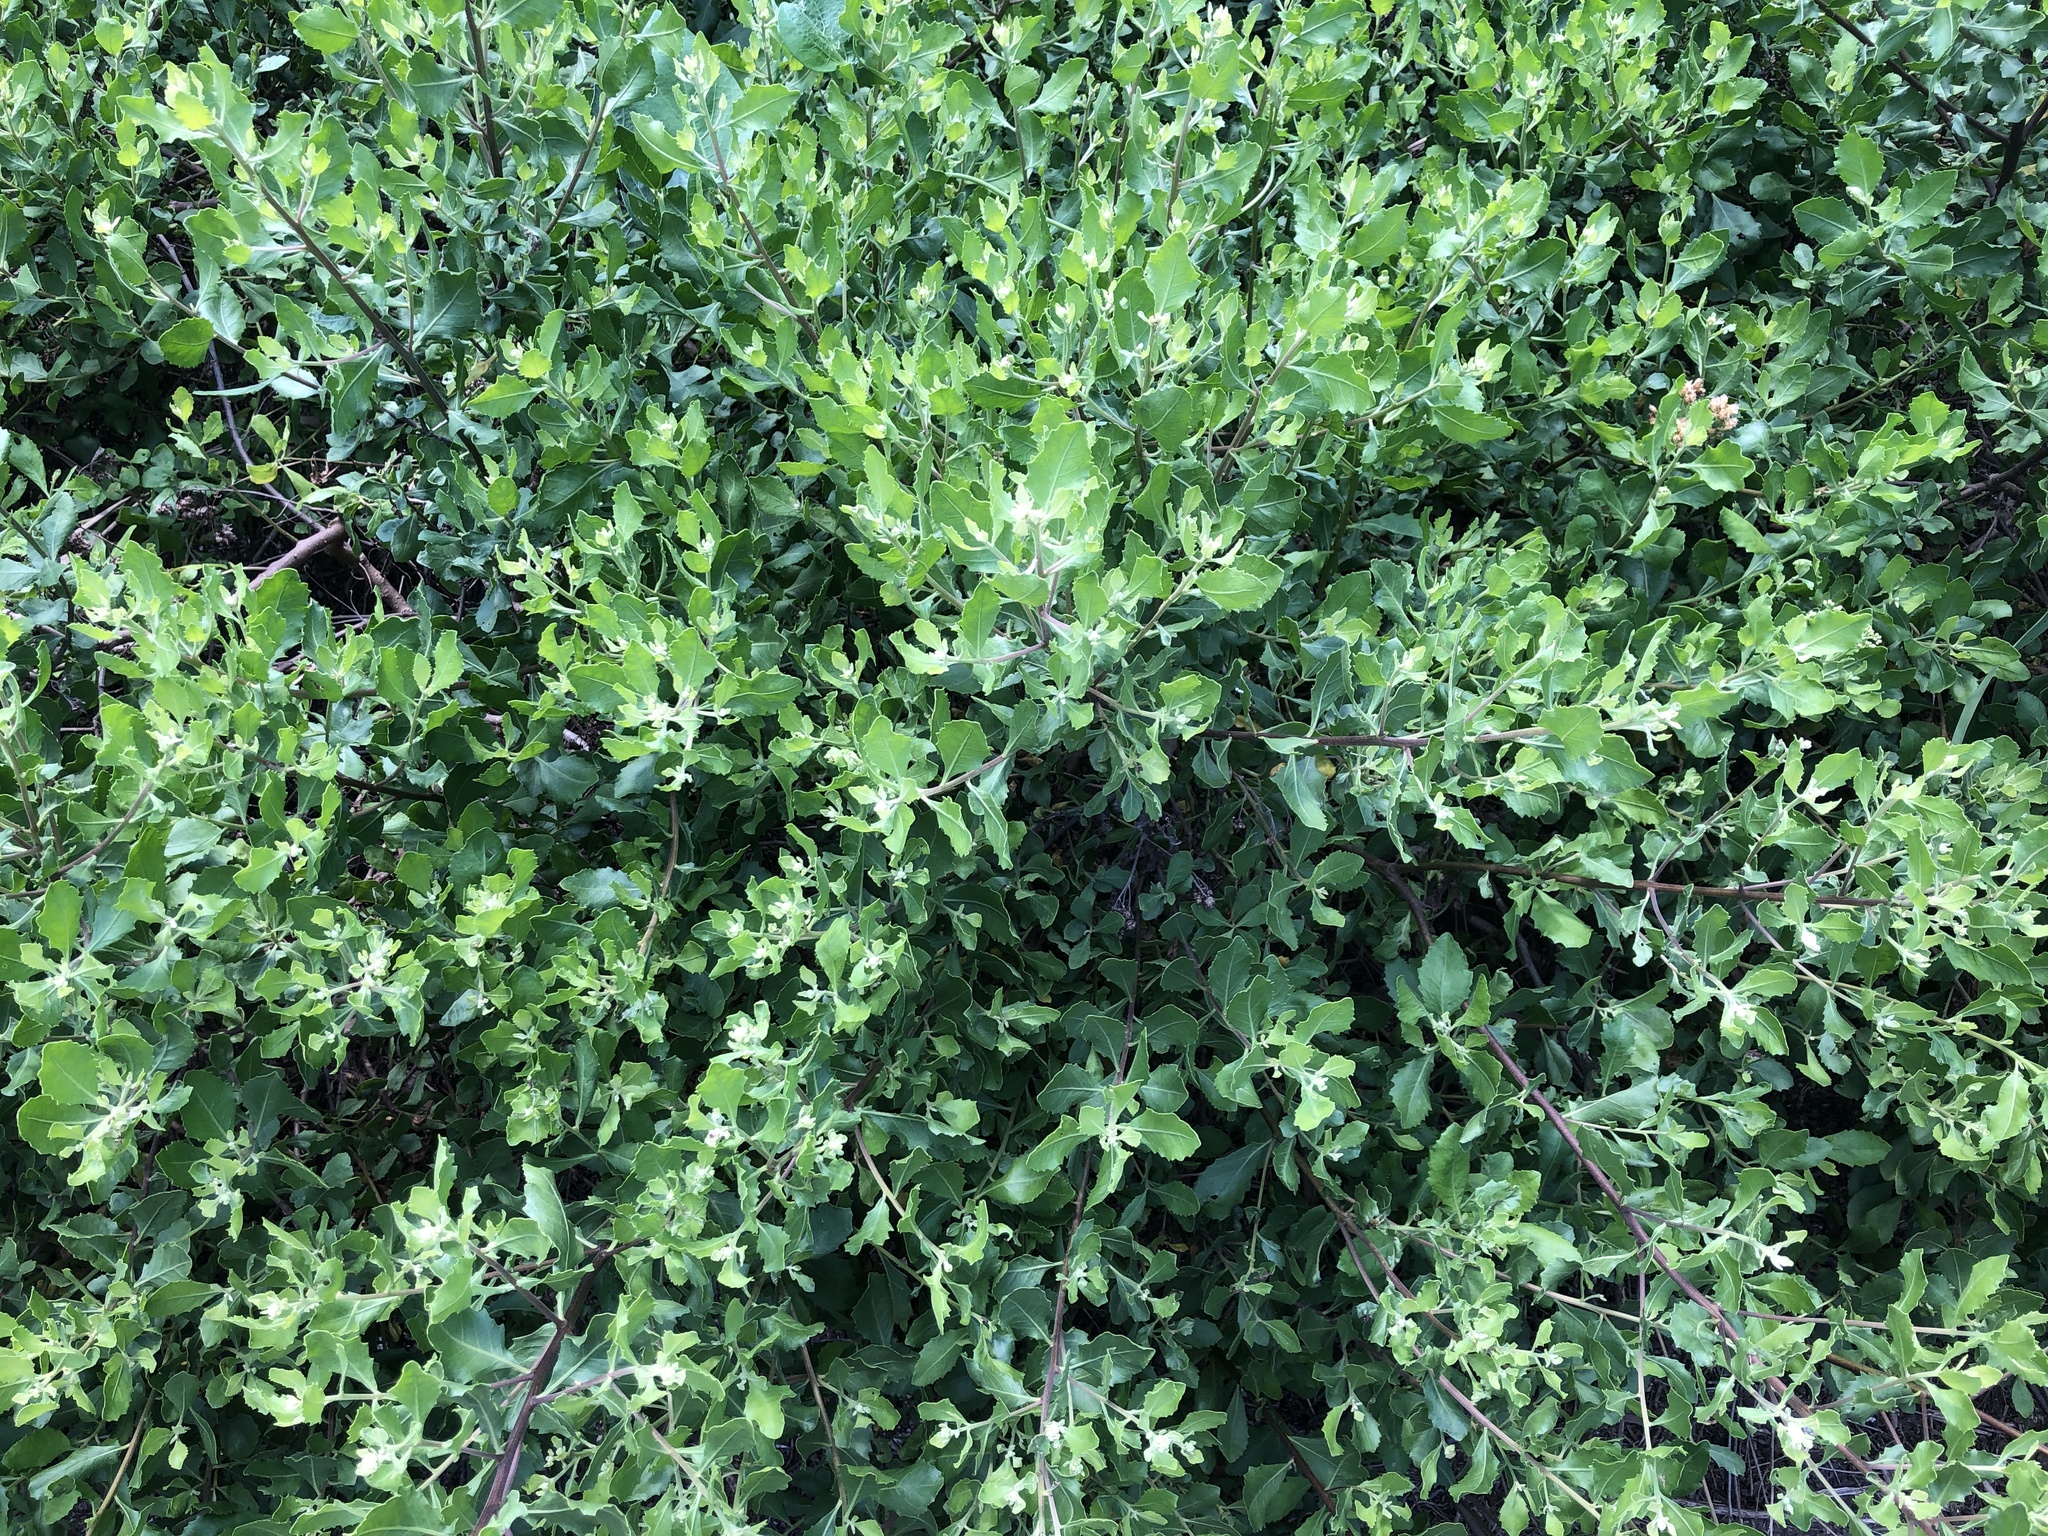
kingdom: Plantae
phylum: Tracheophyta
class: Magnoliopsida
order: Asterales
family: Asteraceae
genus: Pluchea
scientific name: Pluchea indica
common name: Indian fleabane
